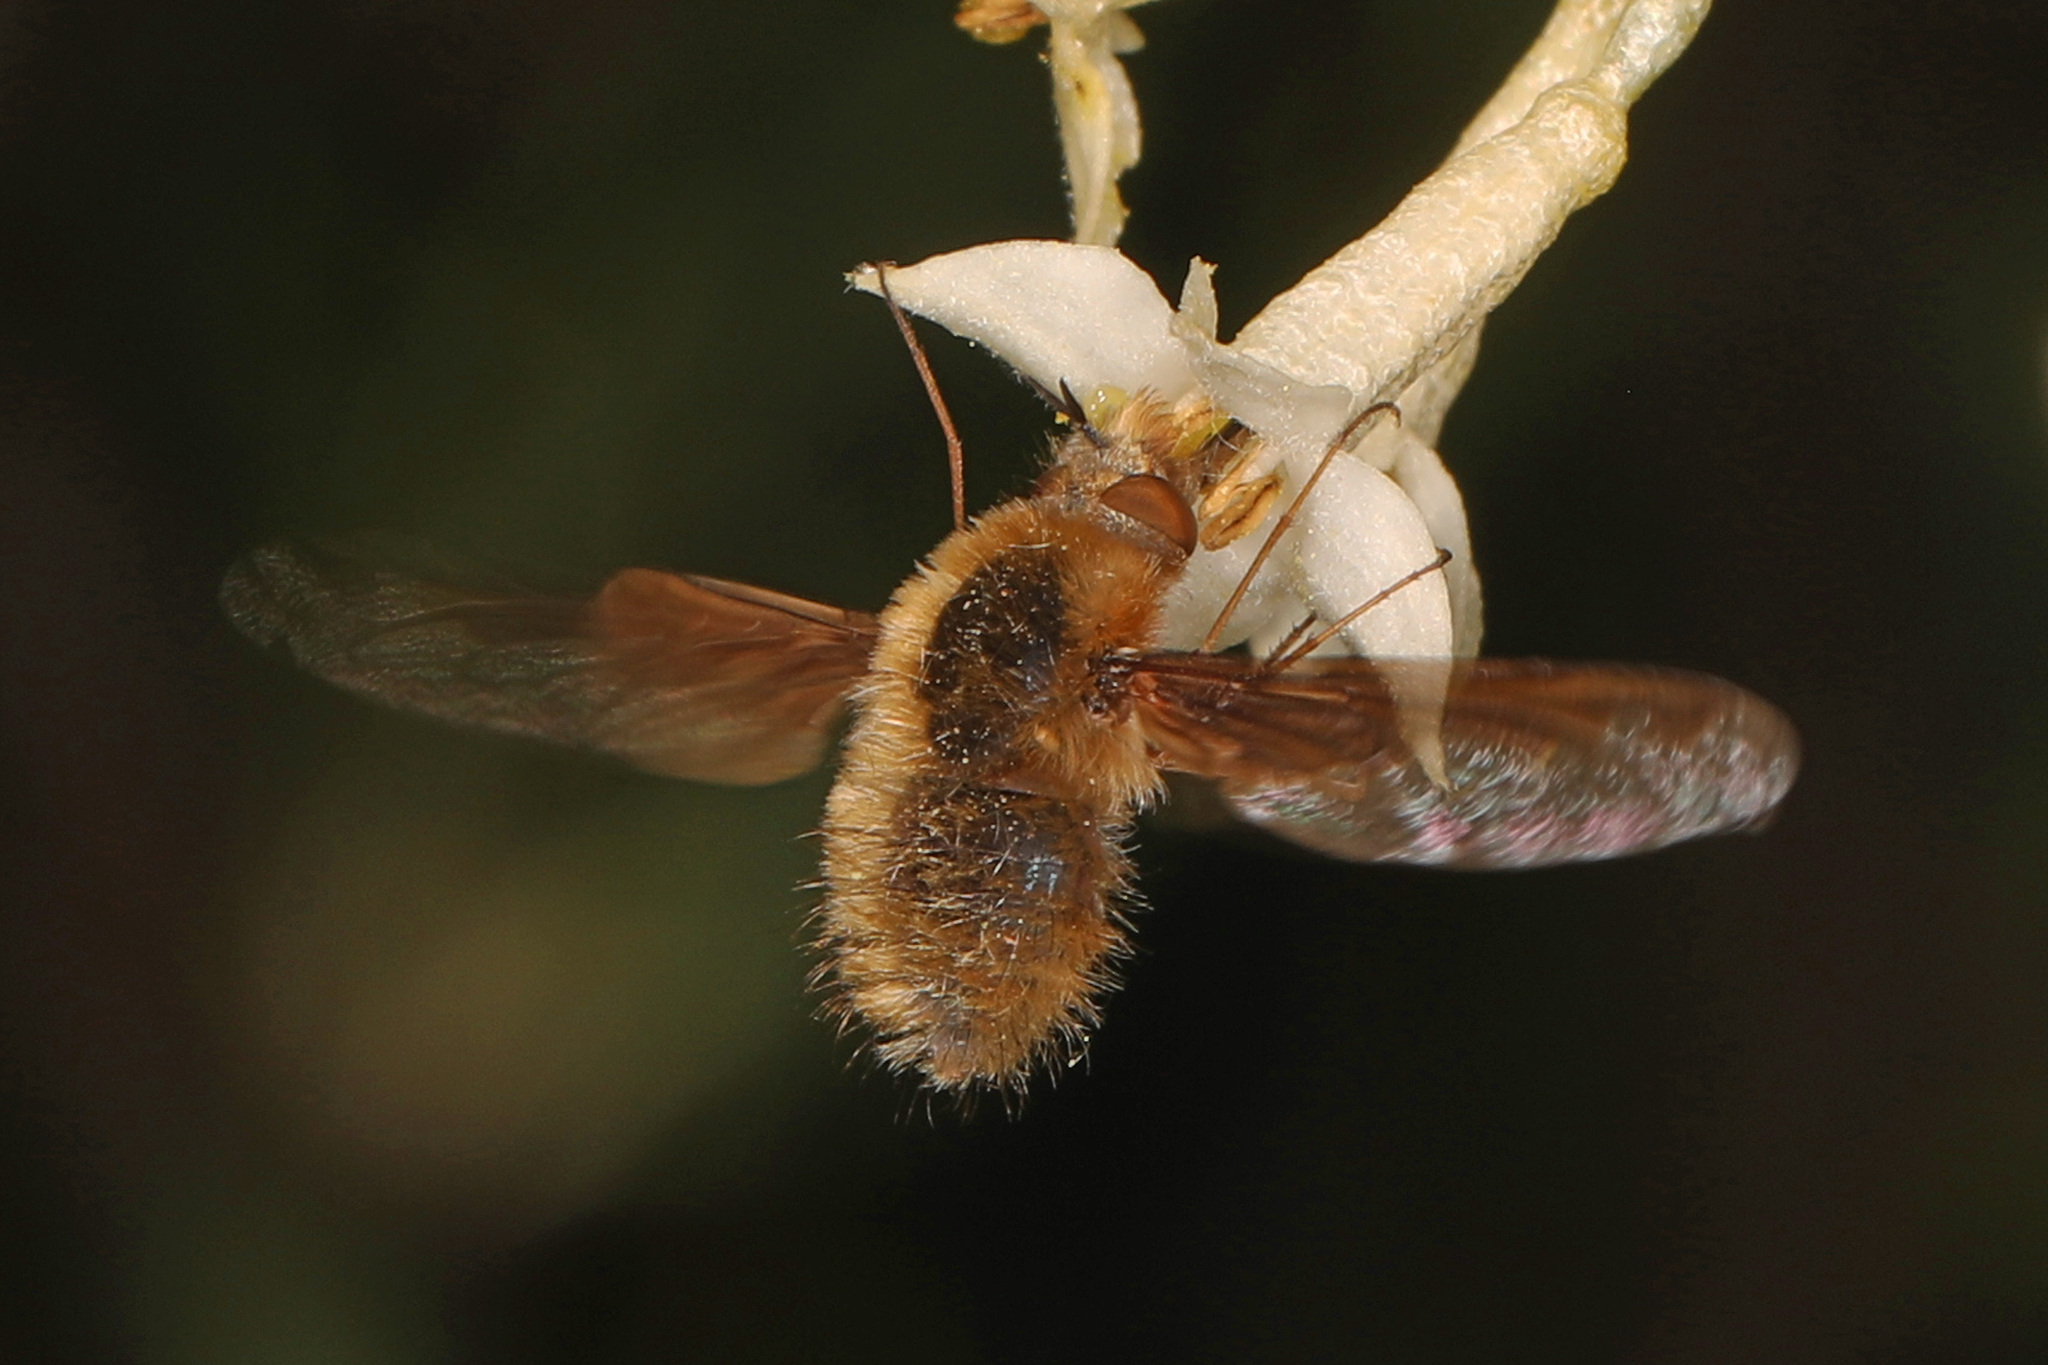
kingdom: Animalia
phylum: Arthropoda
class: Insecta
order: Diptera
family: Bombyliidae
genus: Bombylius
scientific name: Bombylius major
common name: Bee fly
